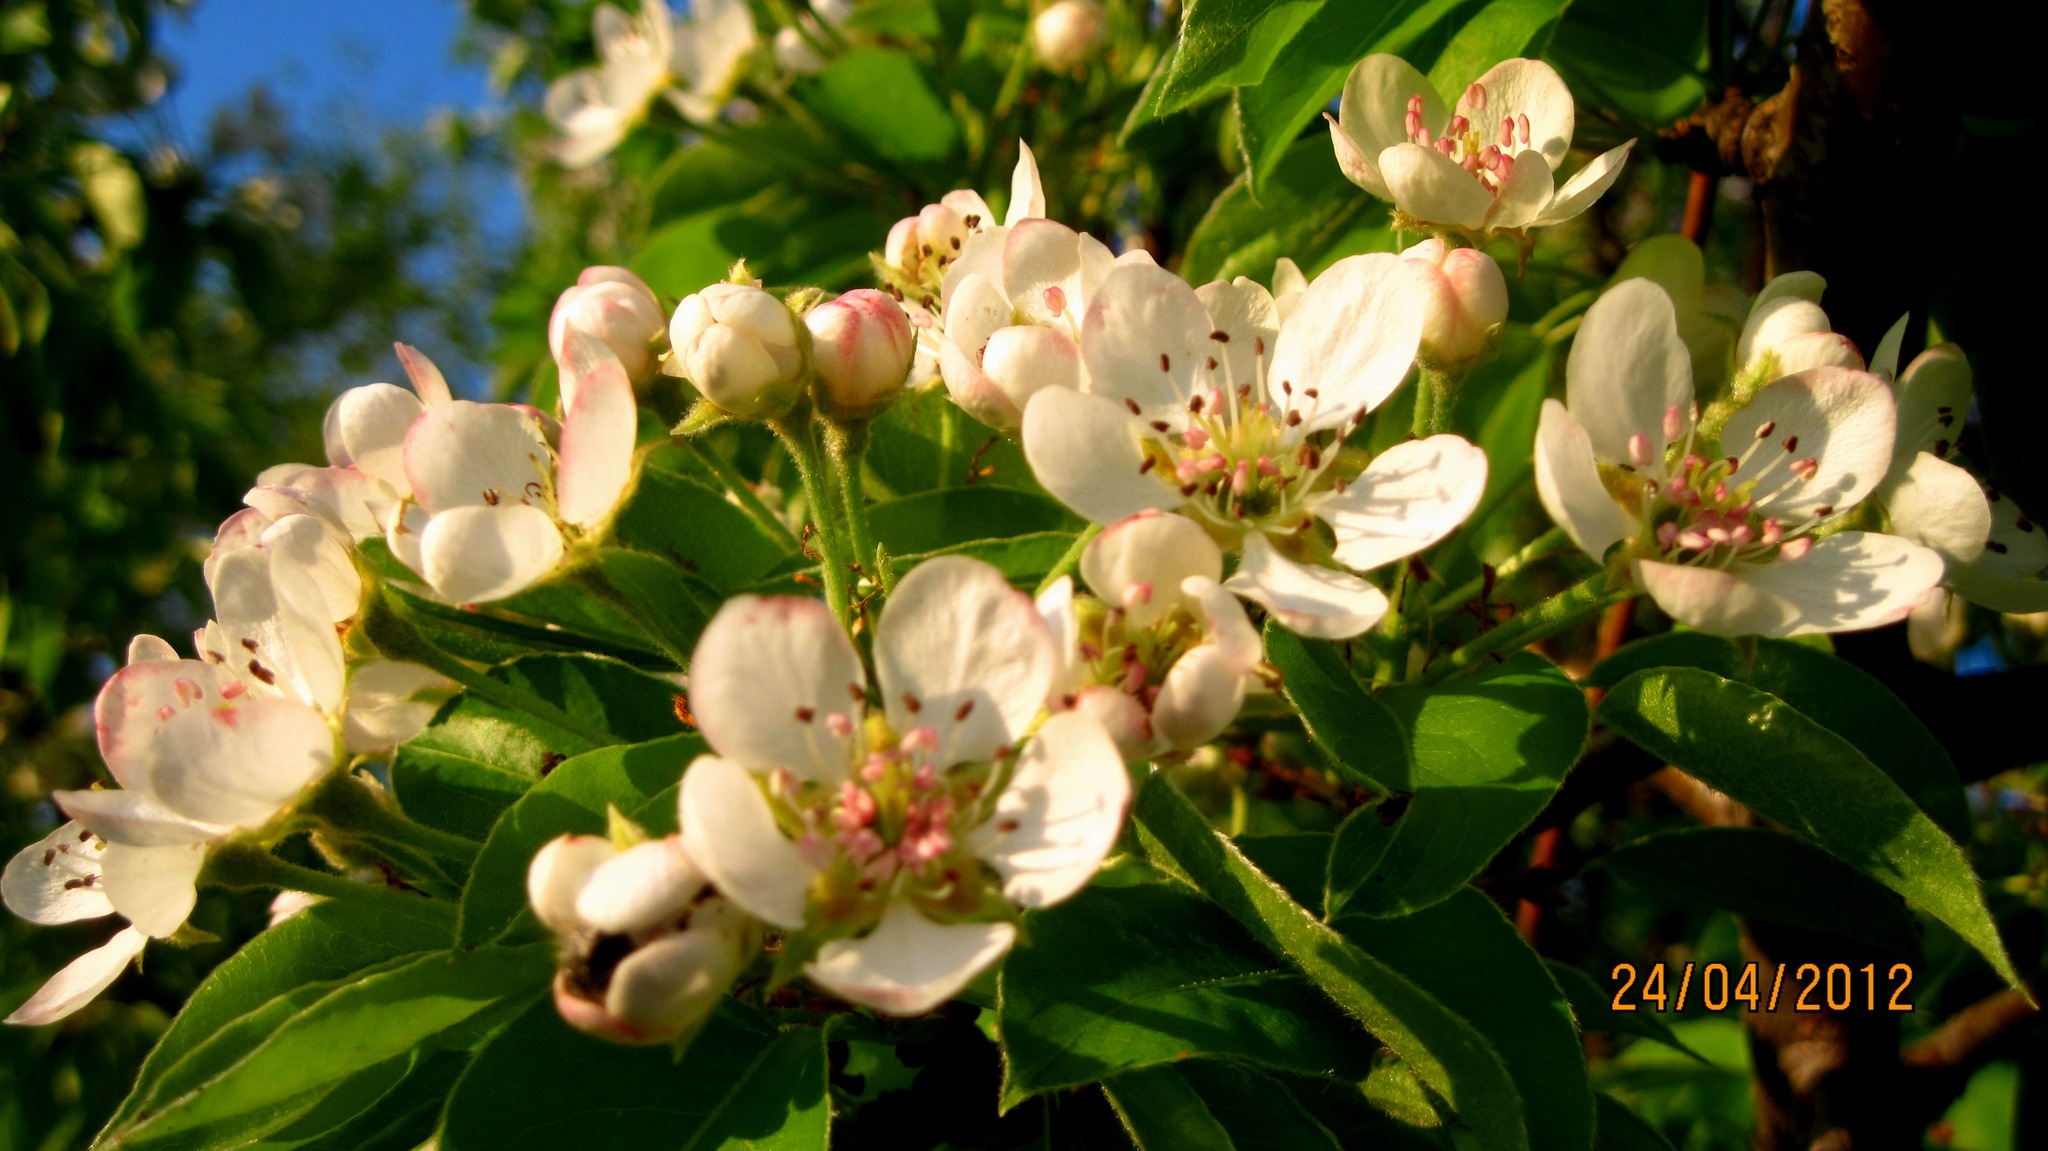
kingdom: Plantae
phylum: Tracheophyta
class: Magnoliopsida
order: Rosales
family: Rosaceae
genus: Pyrus
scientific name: Pyrus communis
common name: Pear
